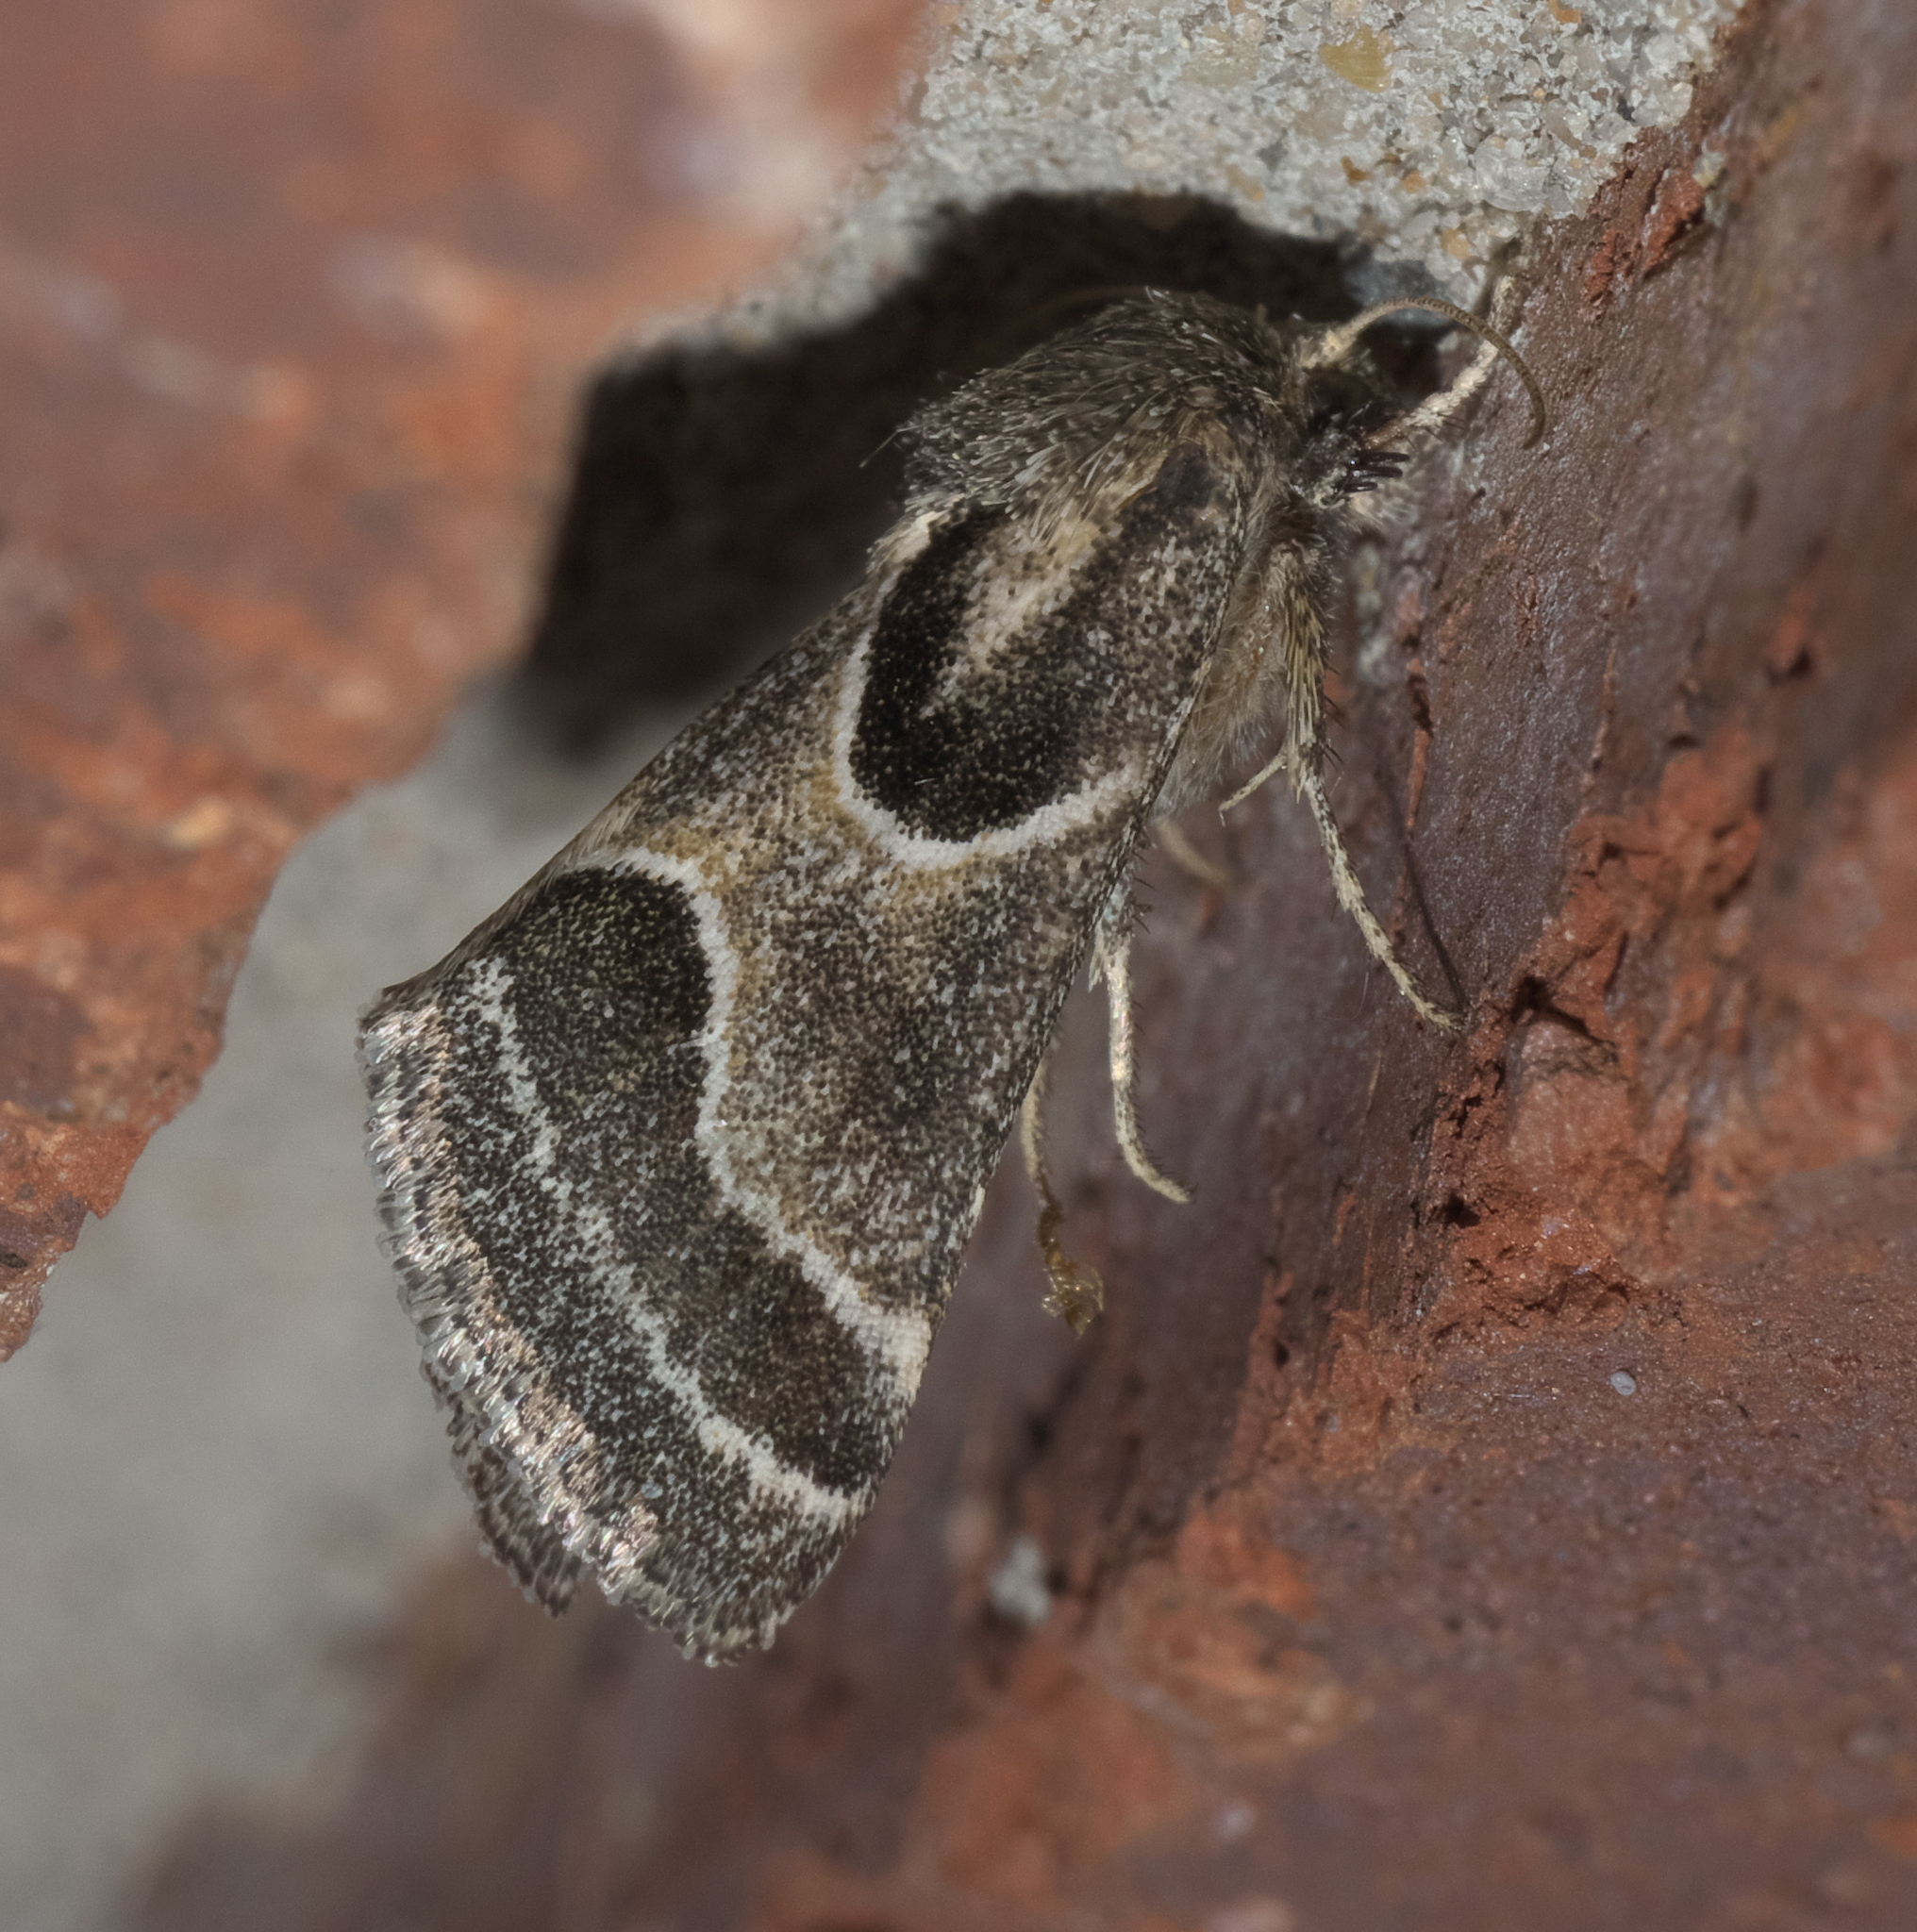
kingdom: Animalia
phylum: Arthropoda
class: Insecta
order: Lepidoptera
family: Noctuidae
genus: Schinia
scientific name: Schinia rivulosa
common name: Scarce meal-moth
